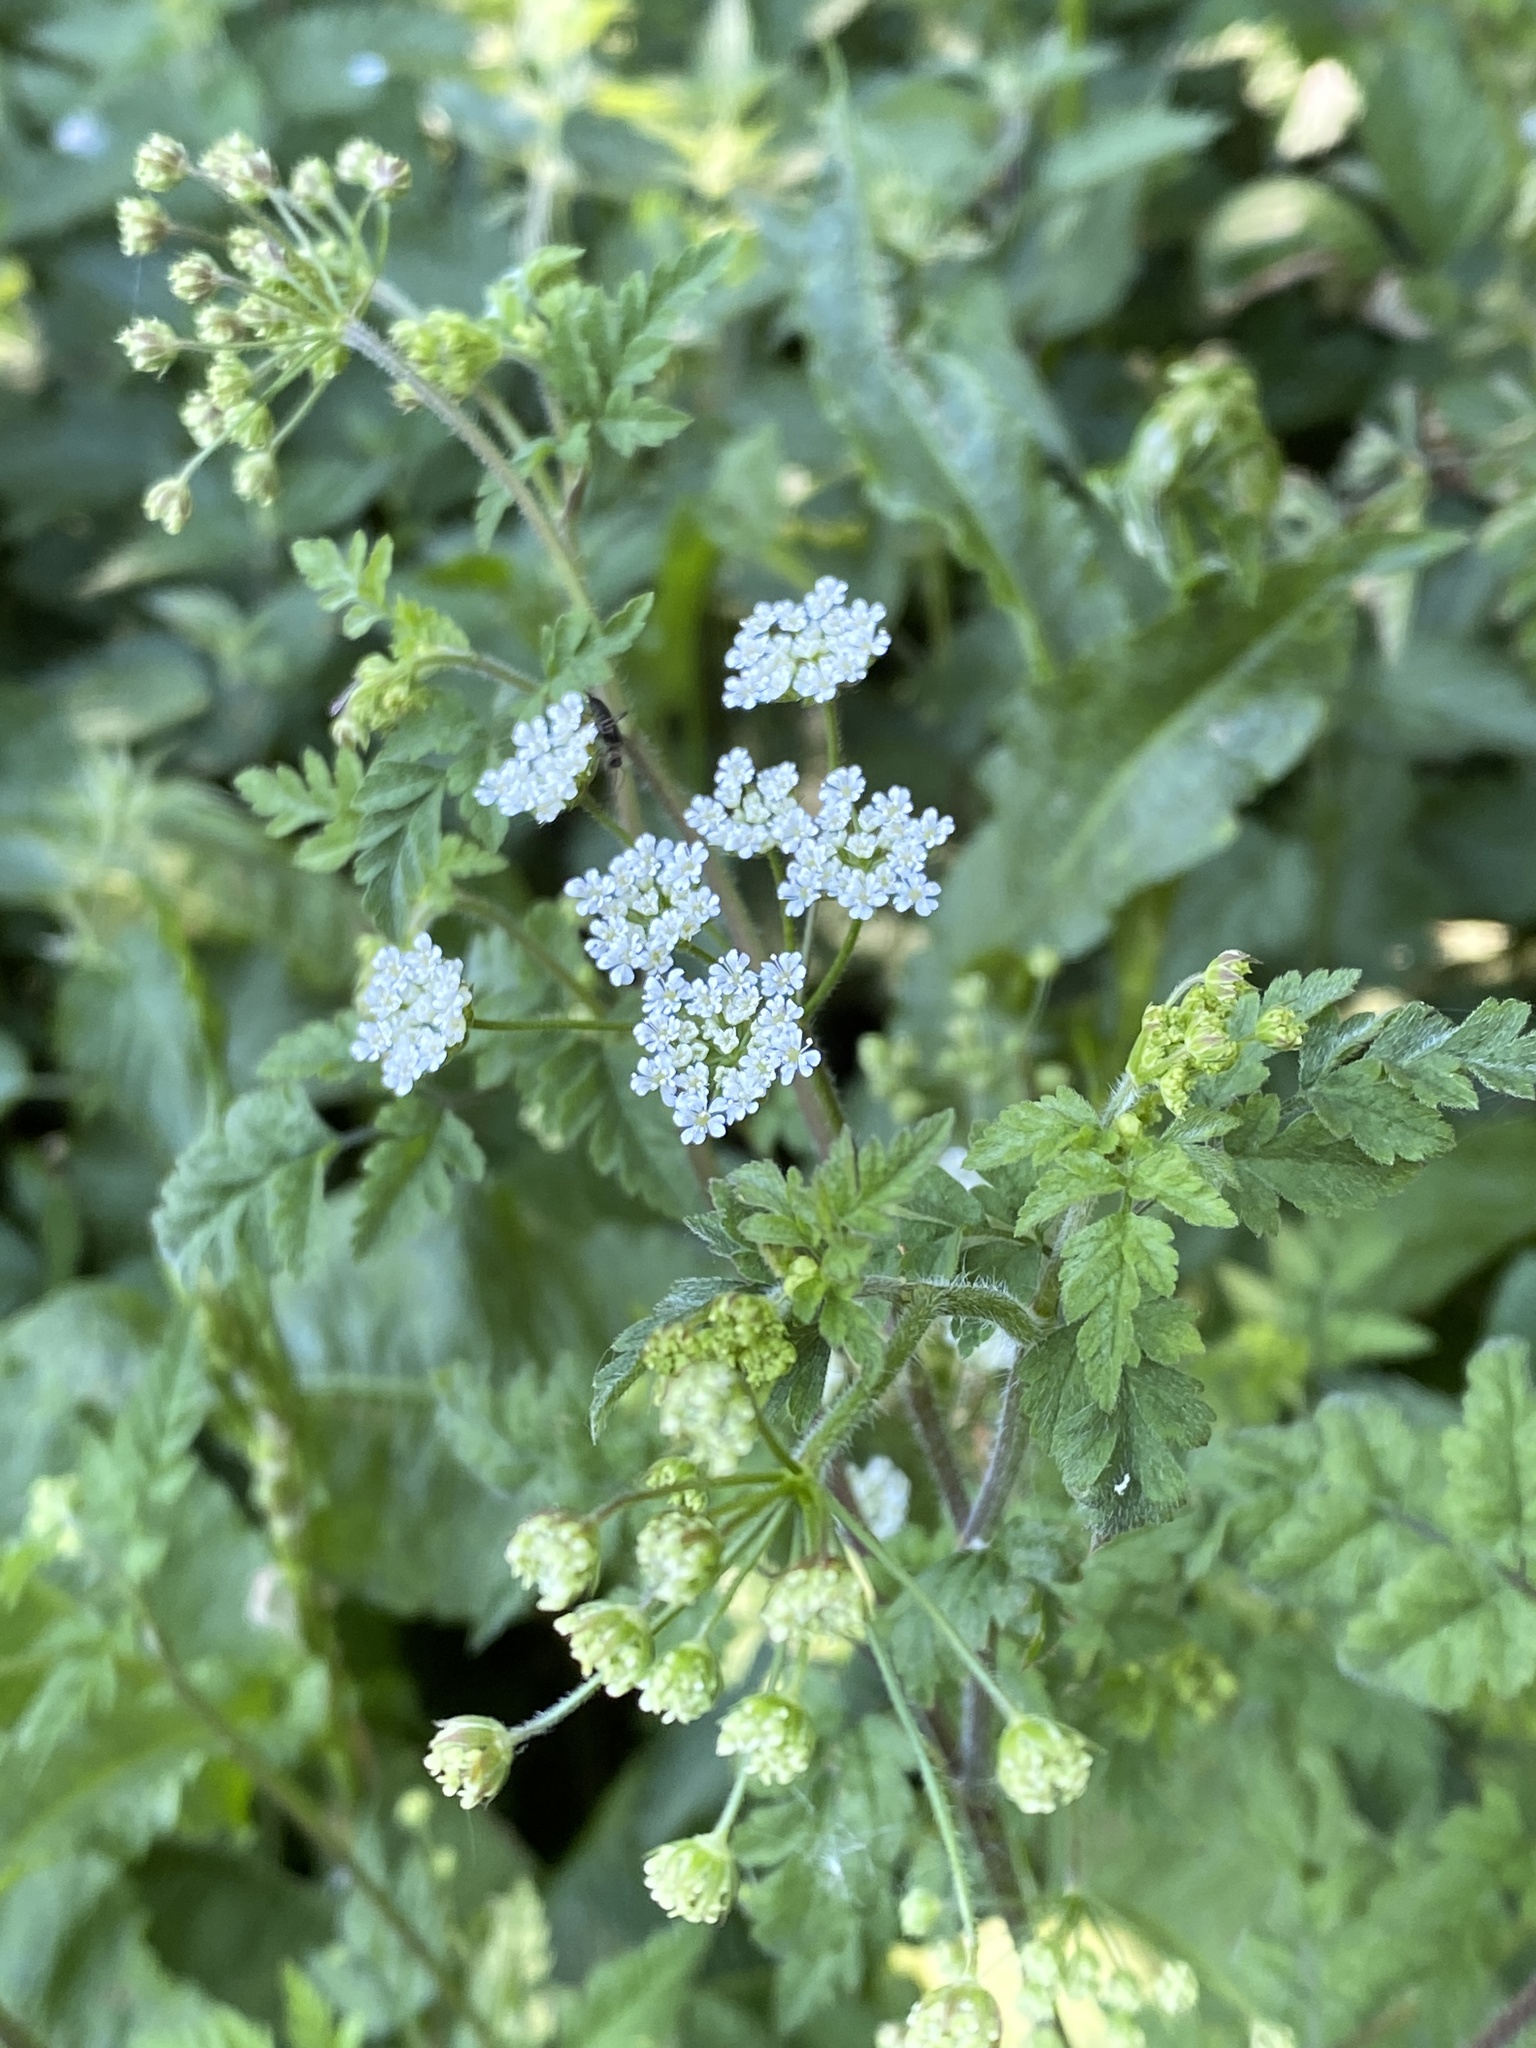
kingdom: Plantae
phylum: Tracheophyta
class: Magnoliopsida
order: Apiales
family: Apiaceae
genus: Chaerophyllum
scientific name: Chaerophyllum temulum
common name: Rough chervil
